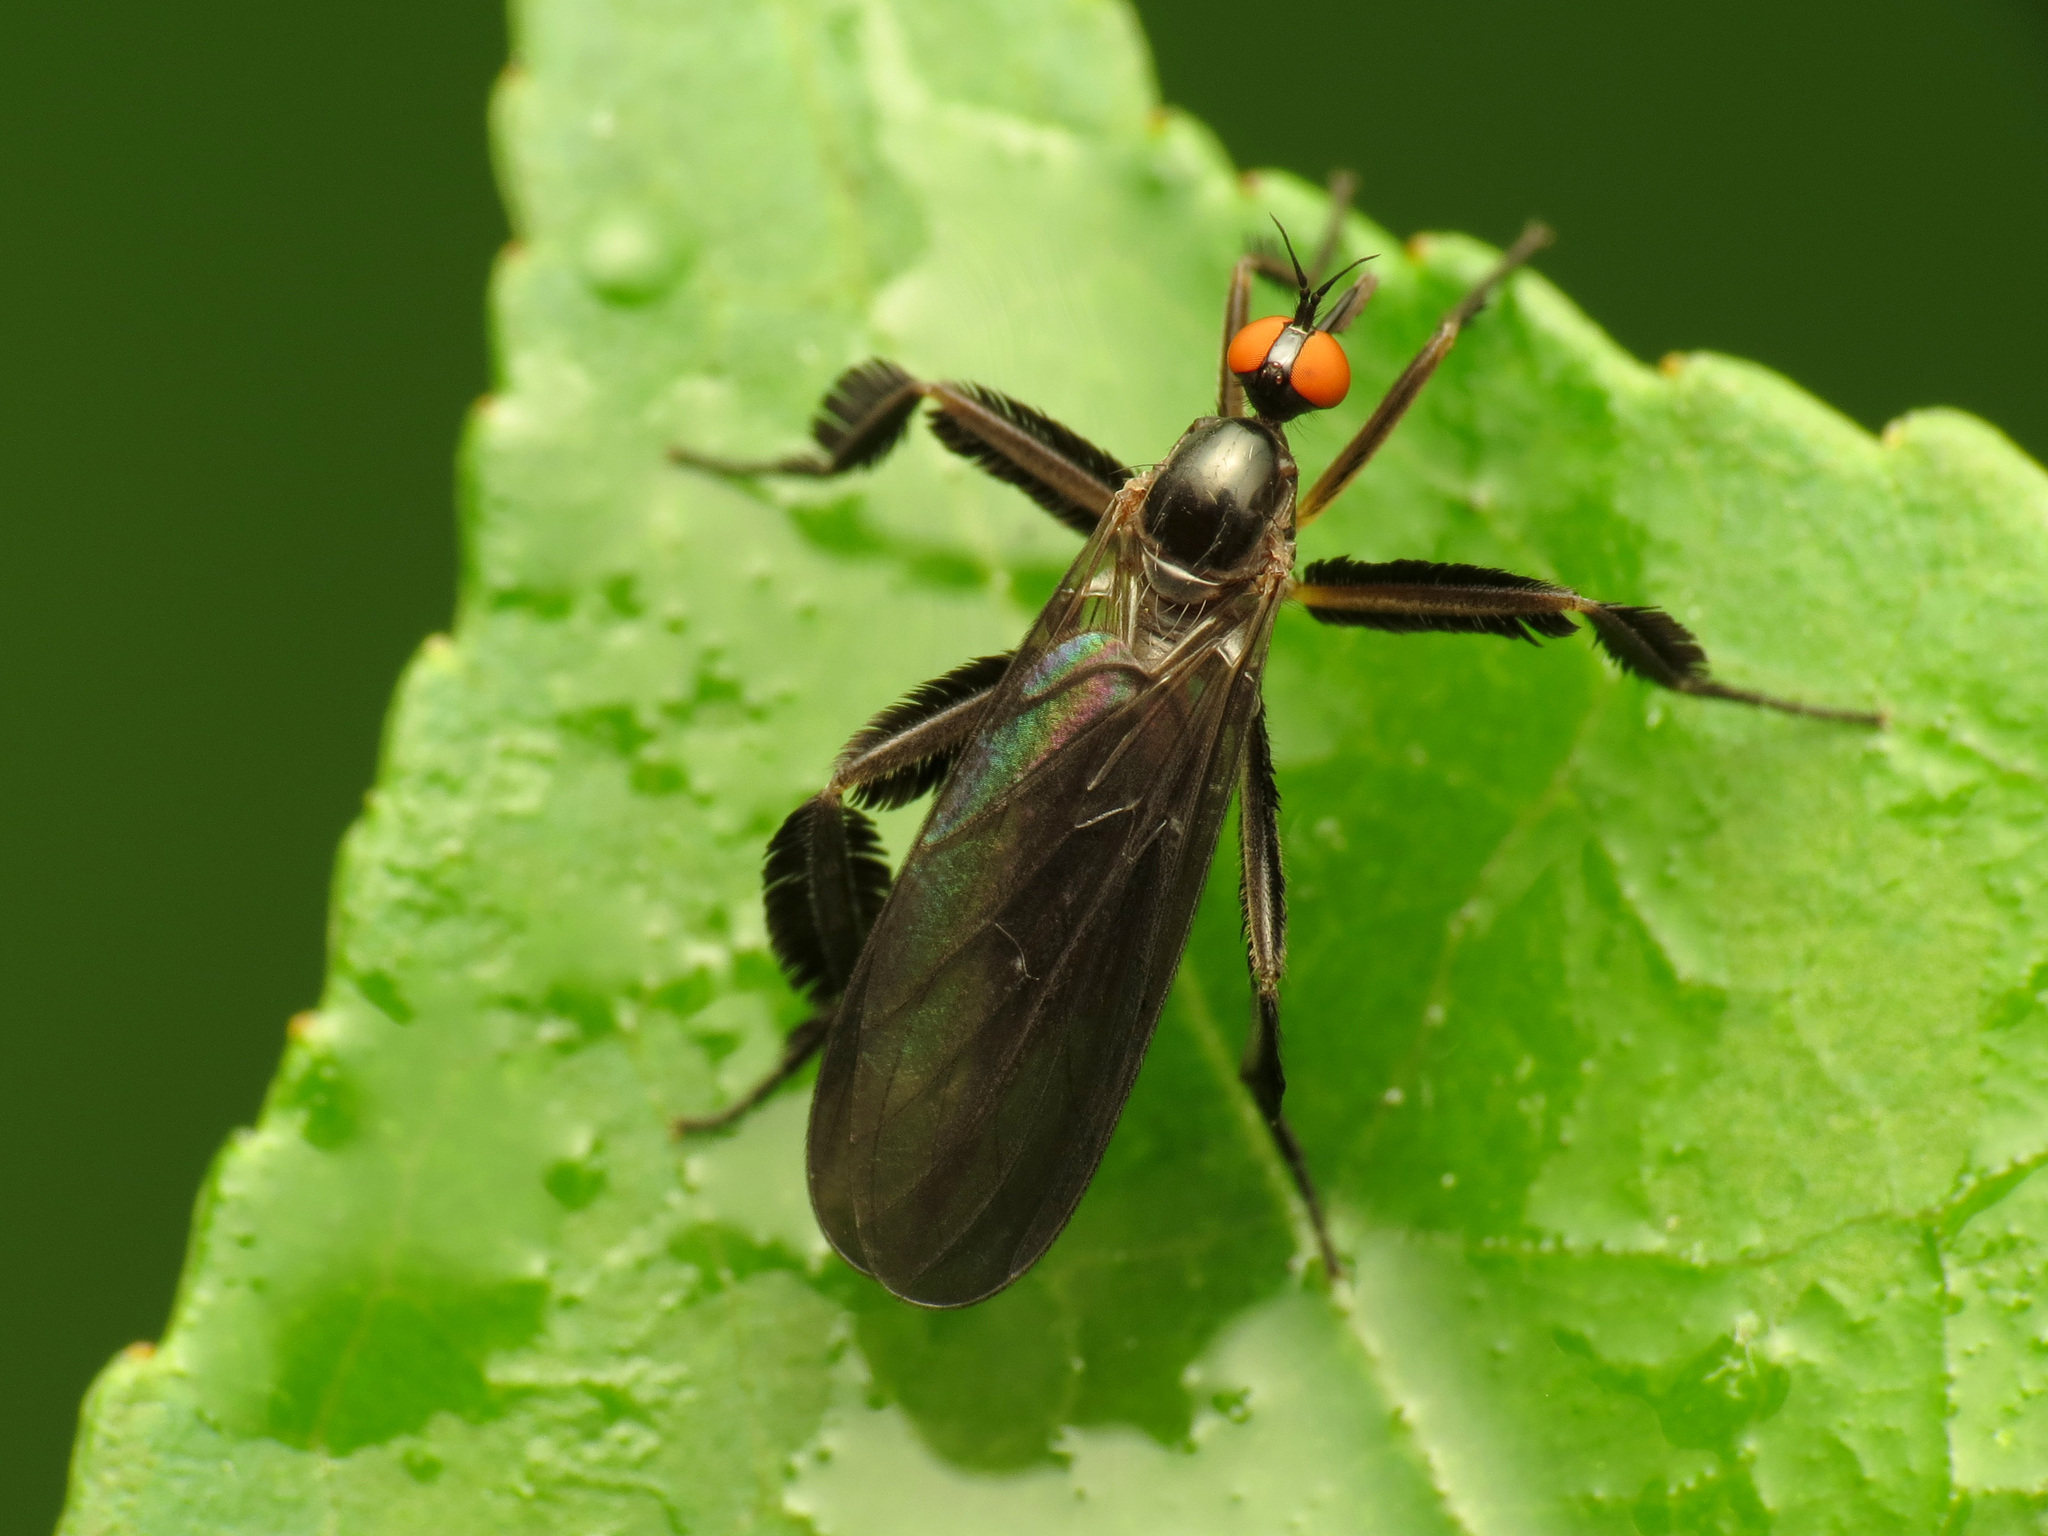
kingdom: Animalia
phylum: Arthropoda
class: Insecta
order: Diptera
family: Empididae
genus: Rhamphomyia
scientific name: Rhamphomyia longicauda
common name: Long-tailed dance fly
